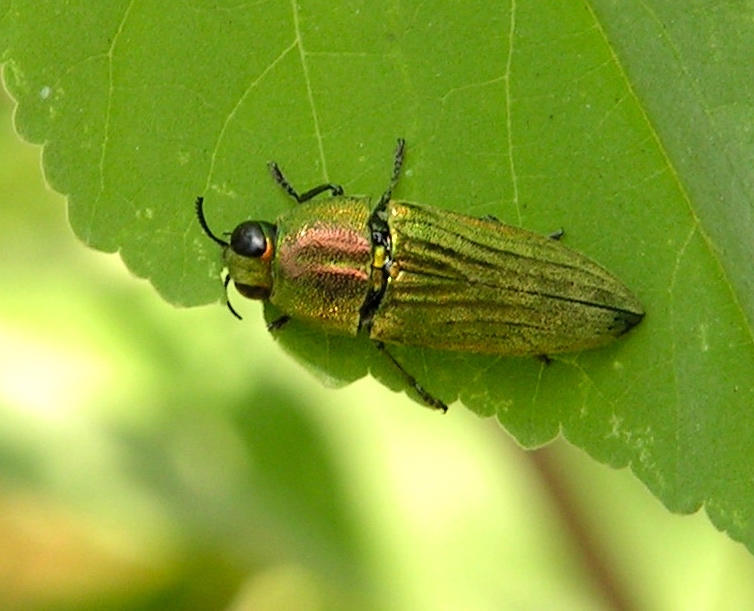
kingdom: Animalia
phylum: Arthropoda
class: Insecta
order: Coleoptera
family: Buprestidae
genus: Agaeocera
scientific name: Agaeocera scintillans
